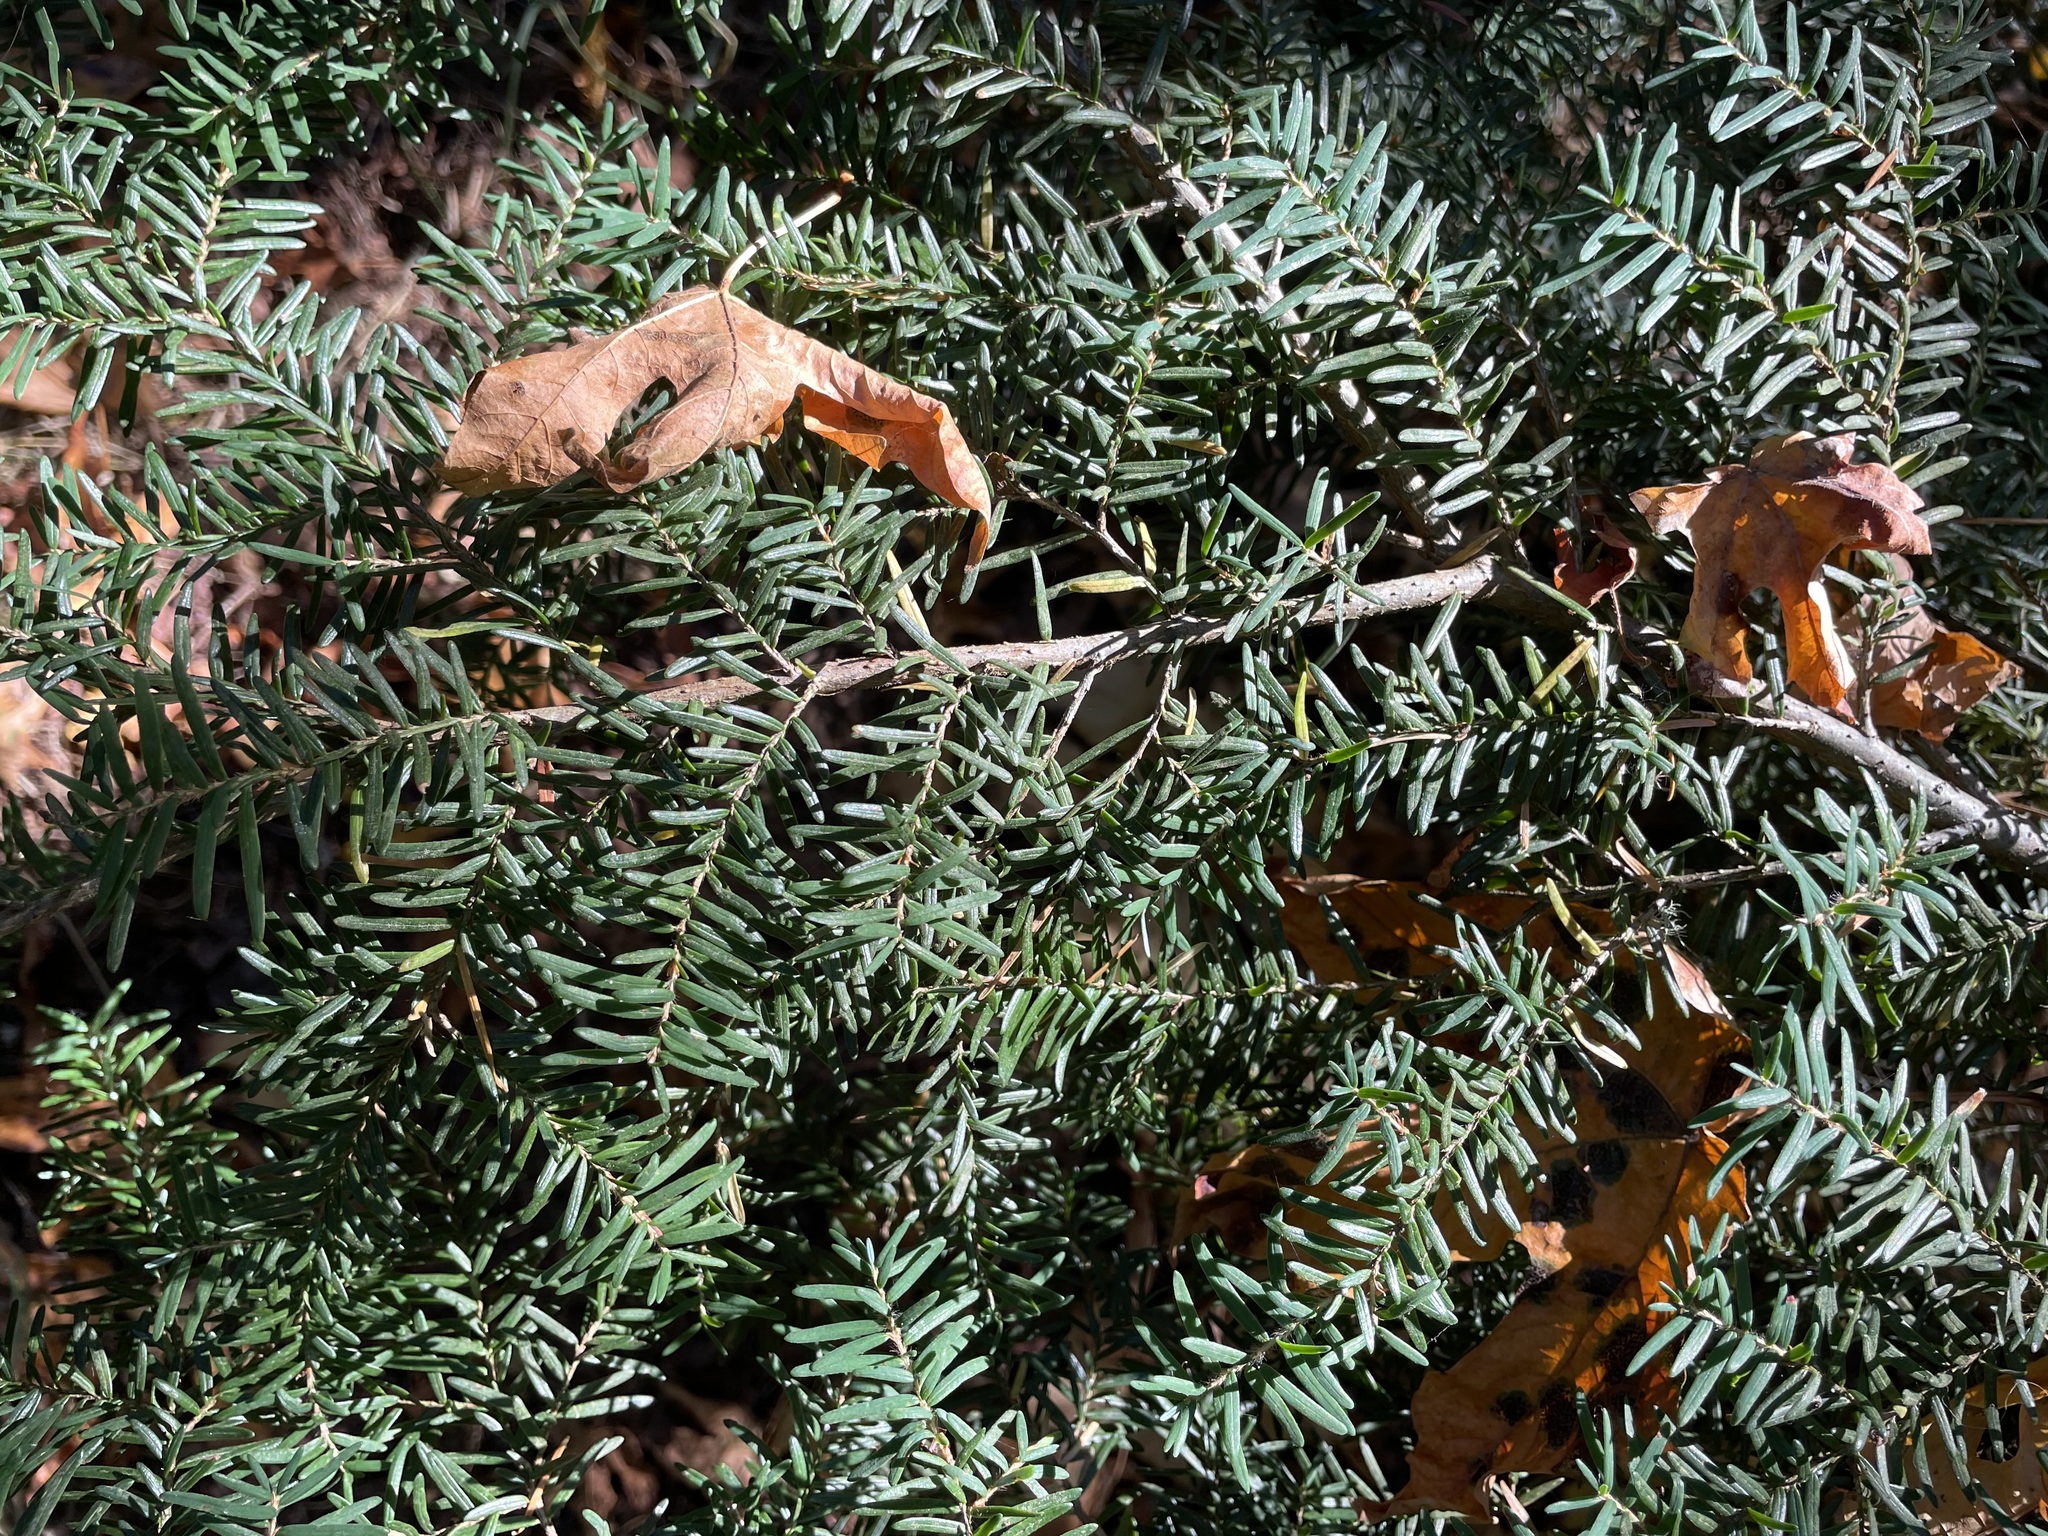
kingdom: Plantae
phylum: Tracheophyta
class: Pinopsida
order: Pinales
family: Pinaceae
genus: Tsuga
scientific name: Tsuga heterophylla
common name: Western hemlock
